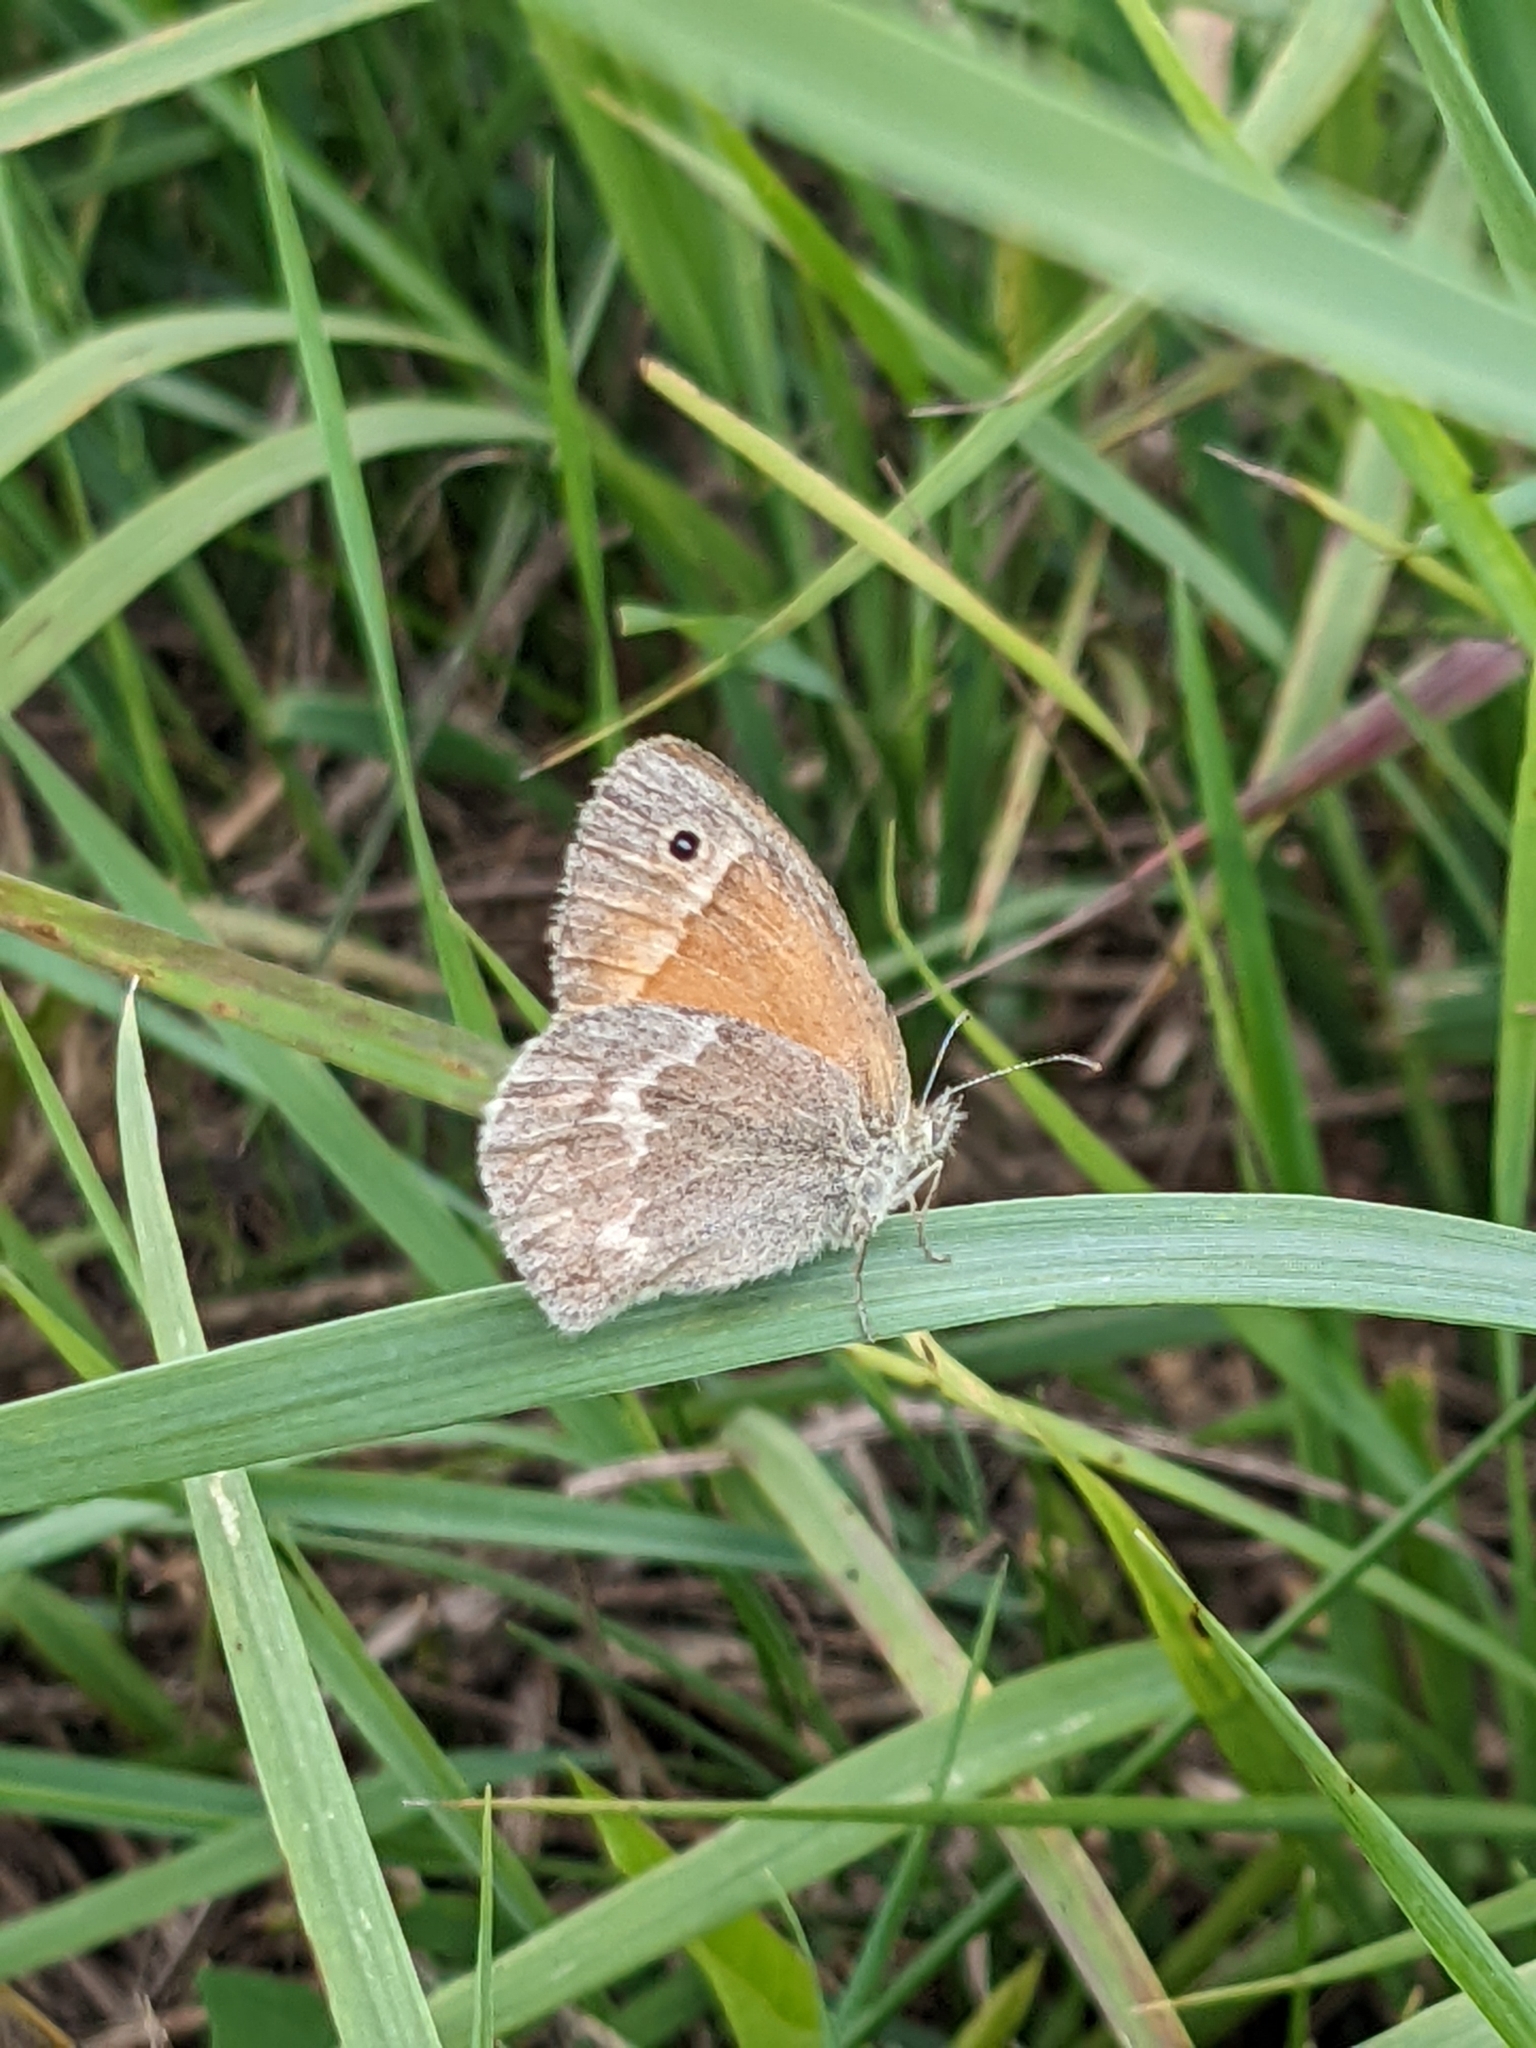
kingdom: Animalia
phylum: Arthropoda
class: Insecta
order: Lepidoptera
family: Nymphalidae
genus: Coenonympha
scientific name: Coenonympha california
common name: Common ringlet
